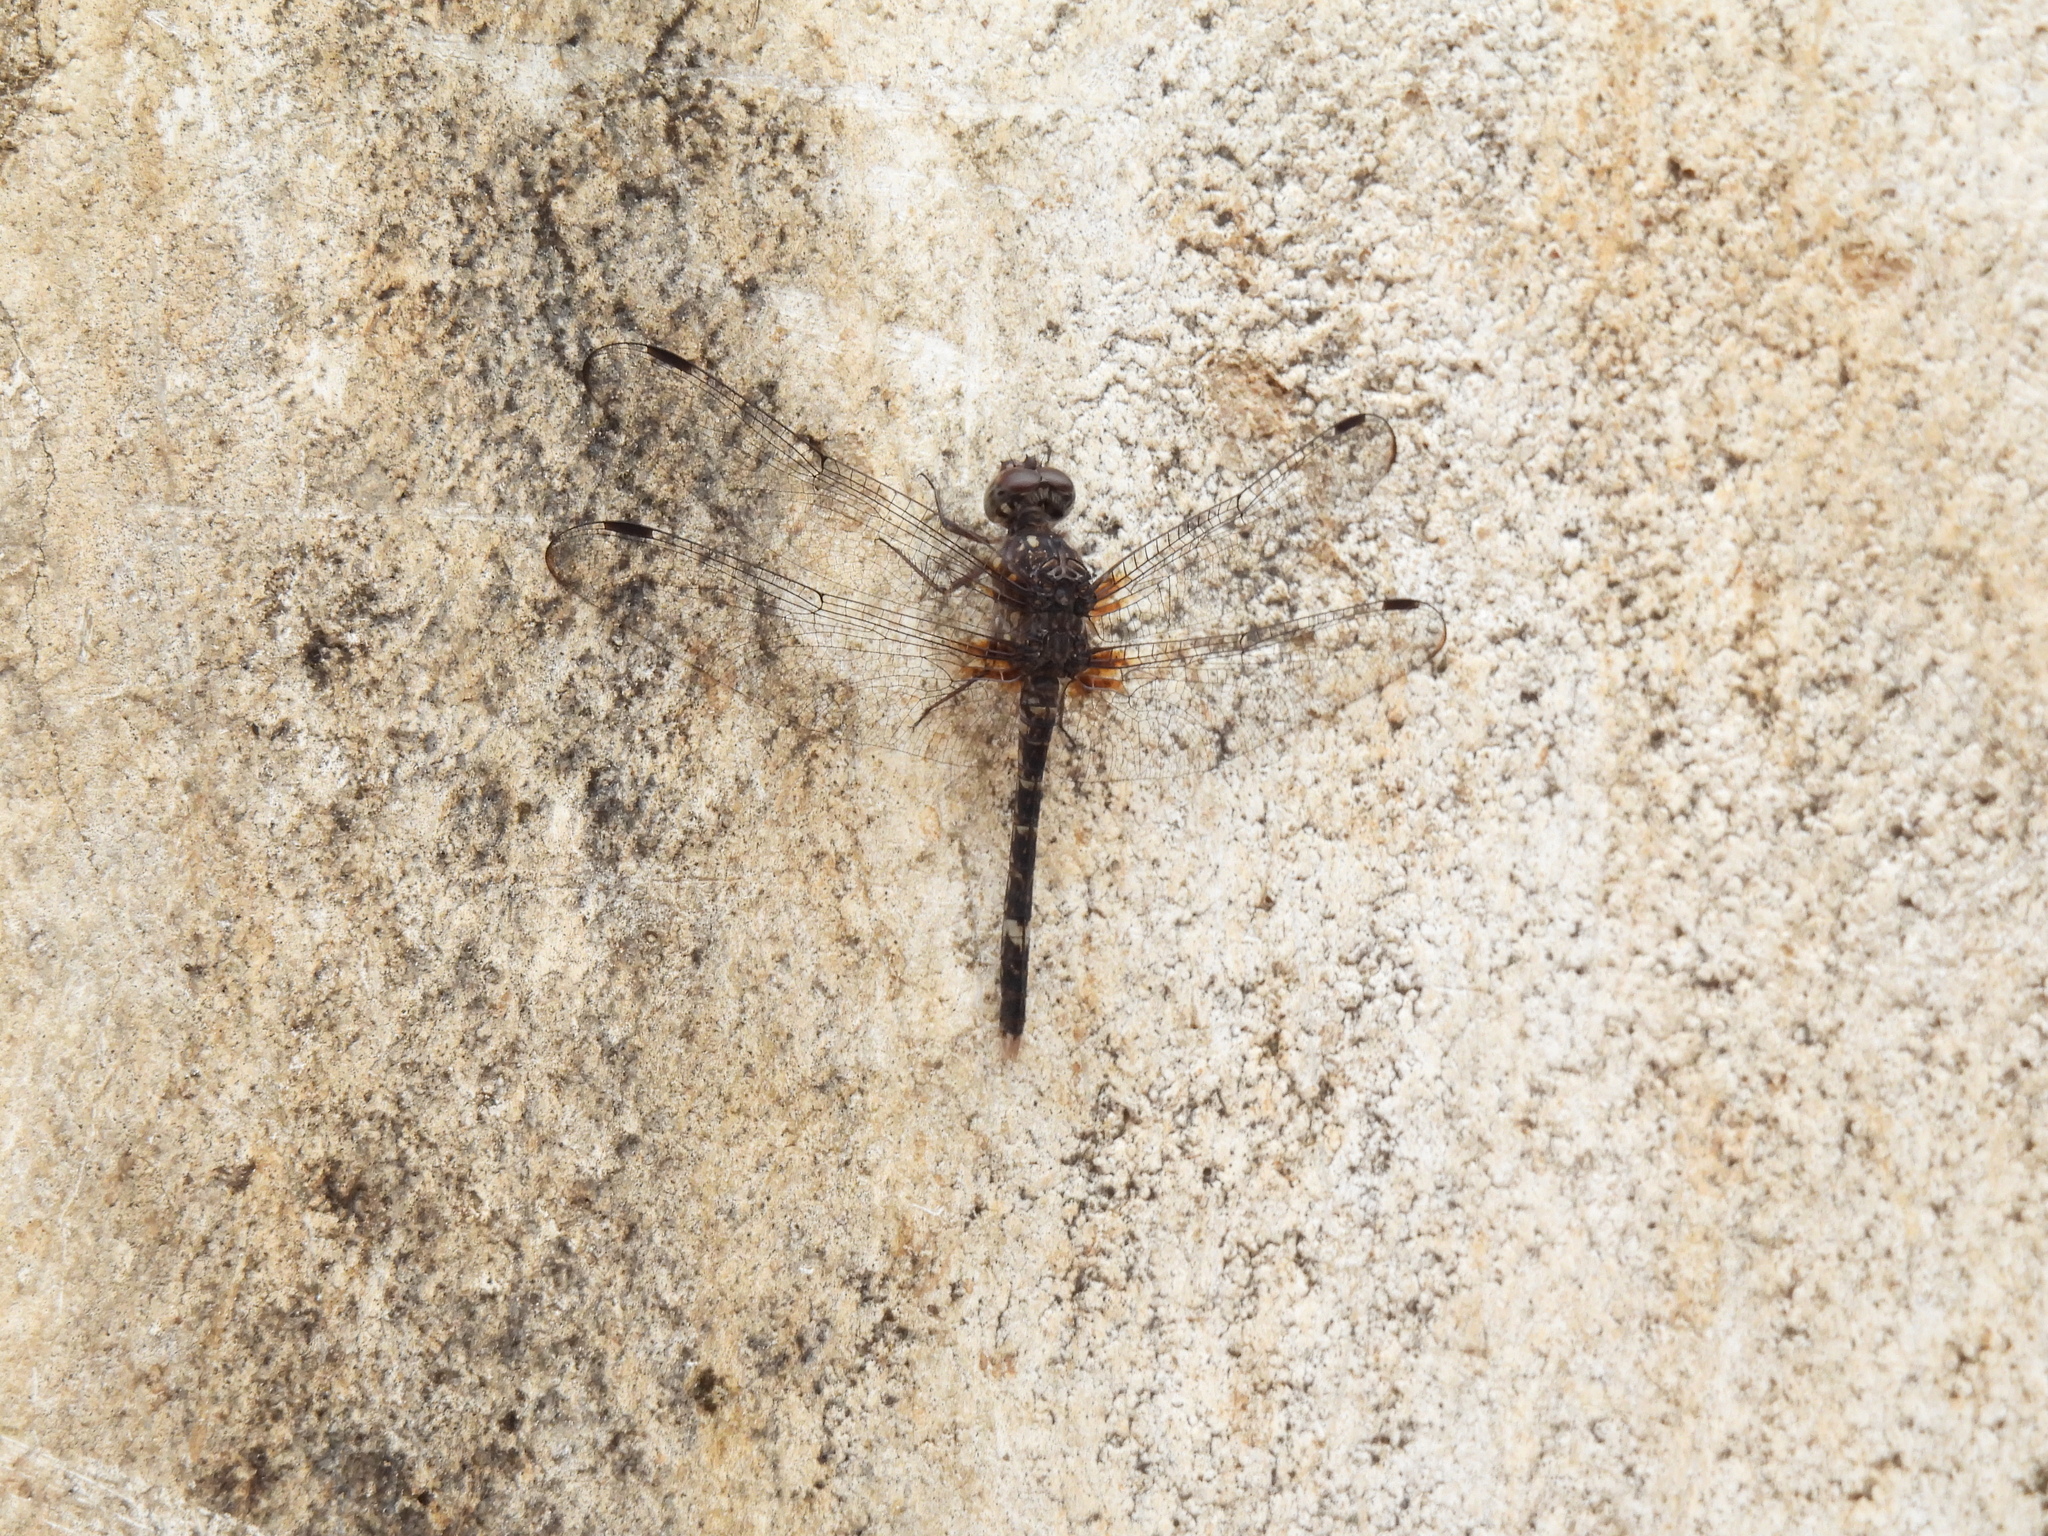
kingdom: Animalia
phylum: Arthropoda
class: Insecta
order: Odonata
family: Libellulidae
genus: Bradinopyga
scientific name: Bradinopyga cornuta
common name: Flecked wall-skimmer
